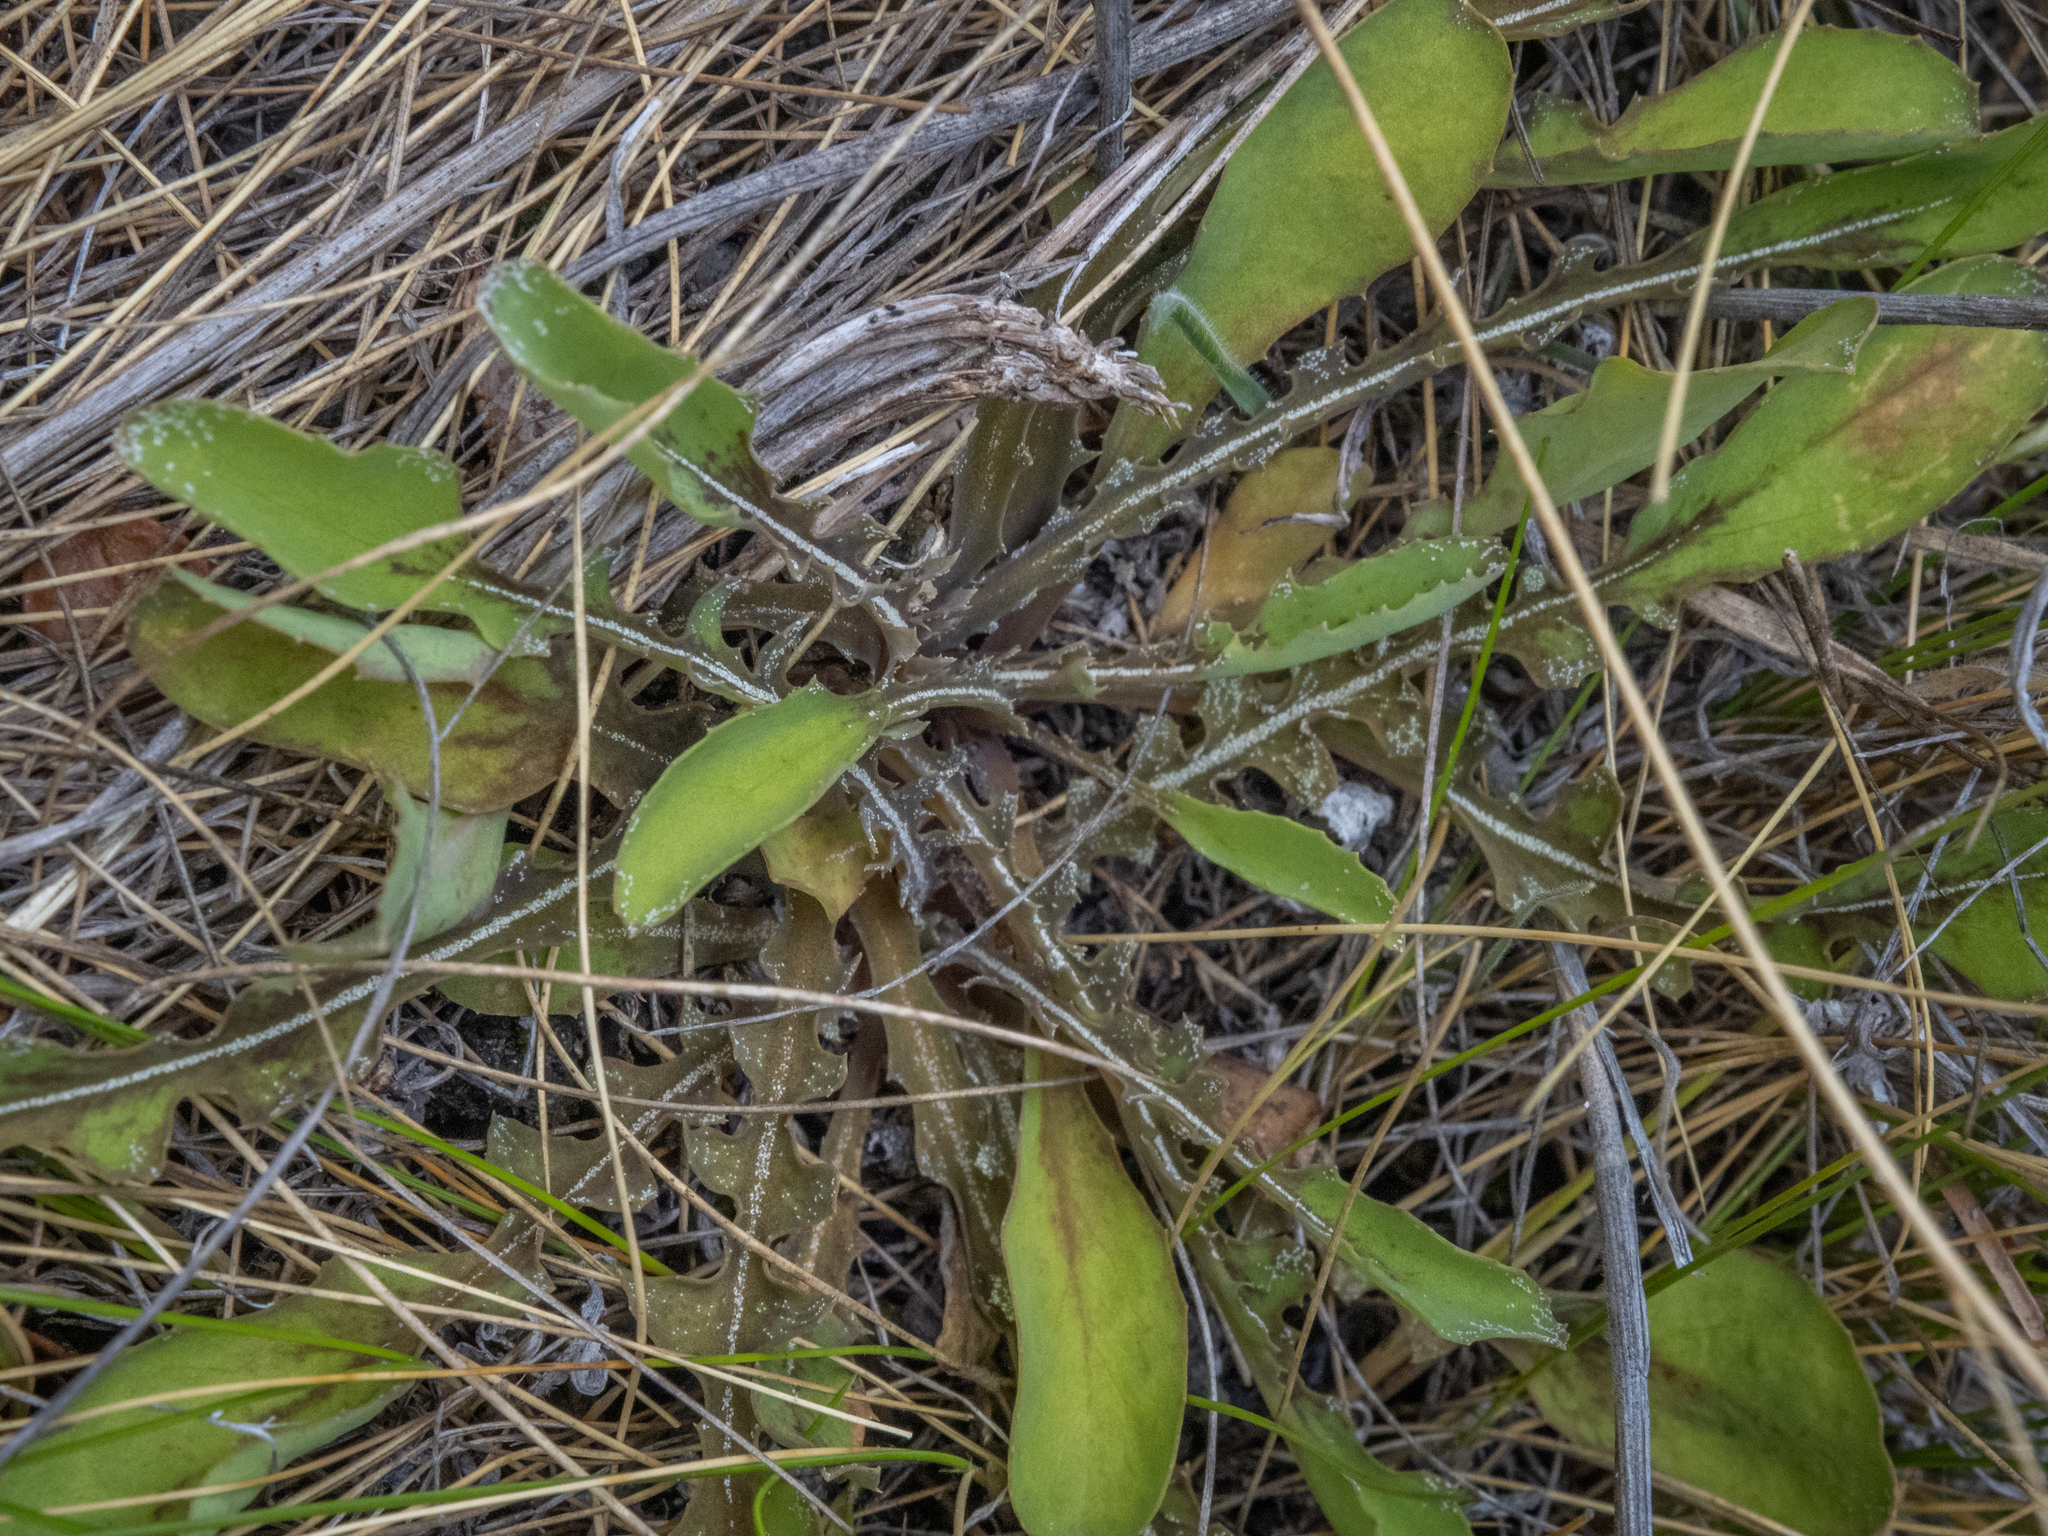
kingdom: Plantae
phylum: Tracheophyta
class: Magnoliopsida
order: Asterales
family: Asteraceae
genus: Sonchus
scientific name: Sonchus novae-zelandiae
